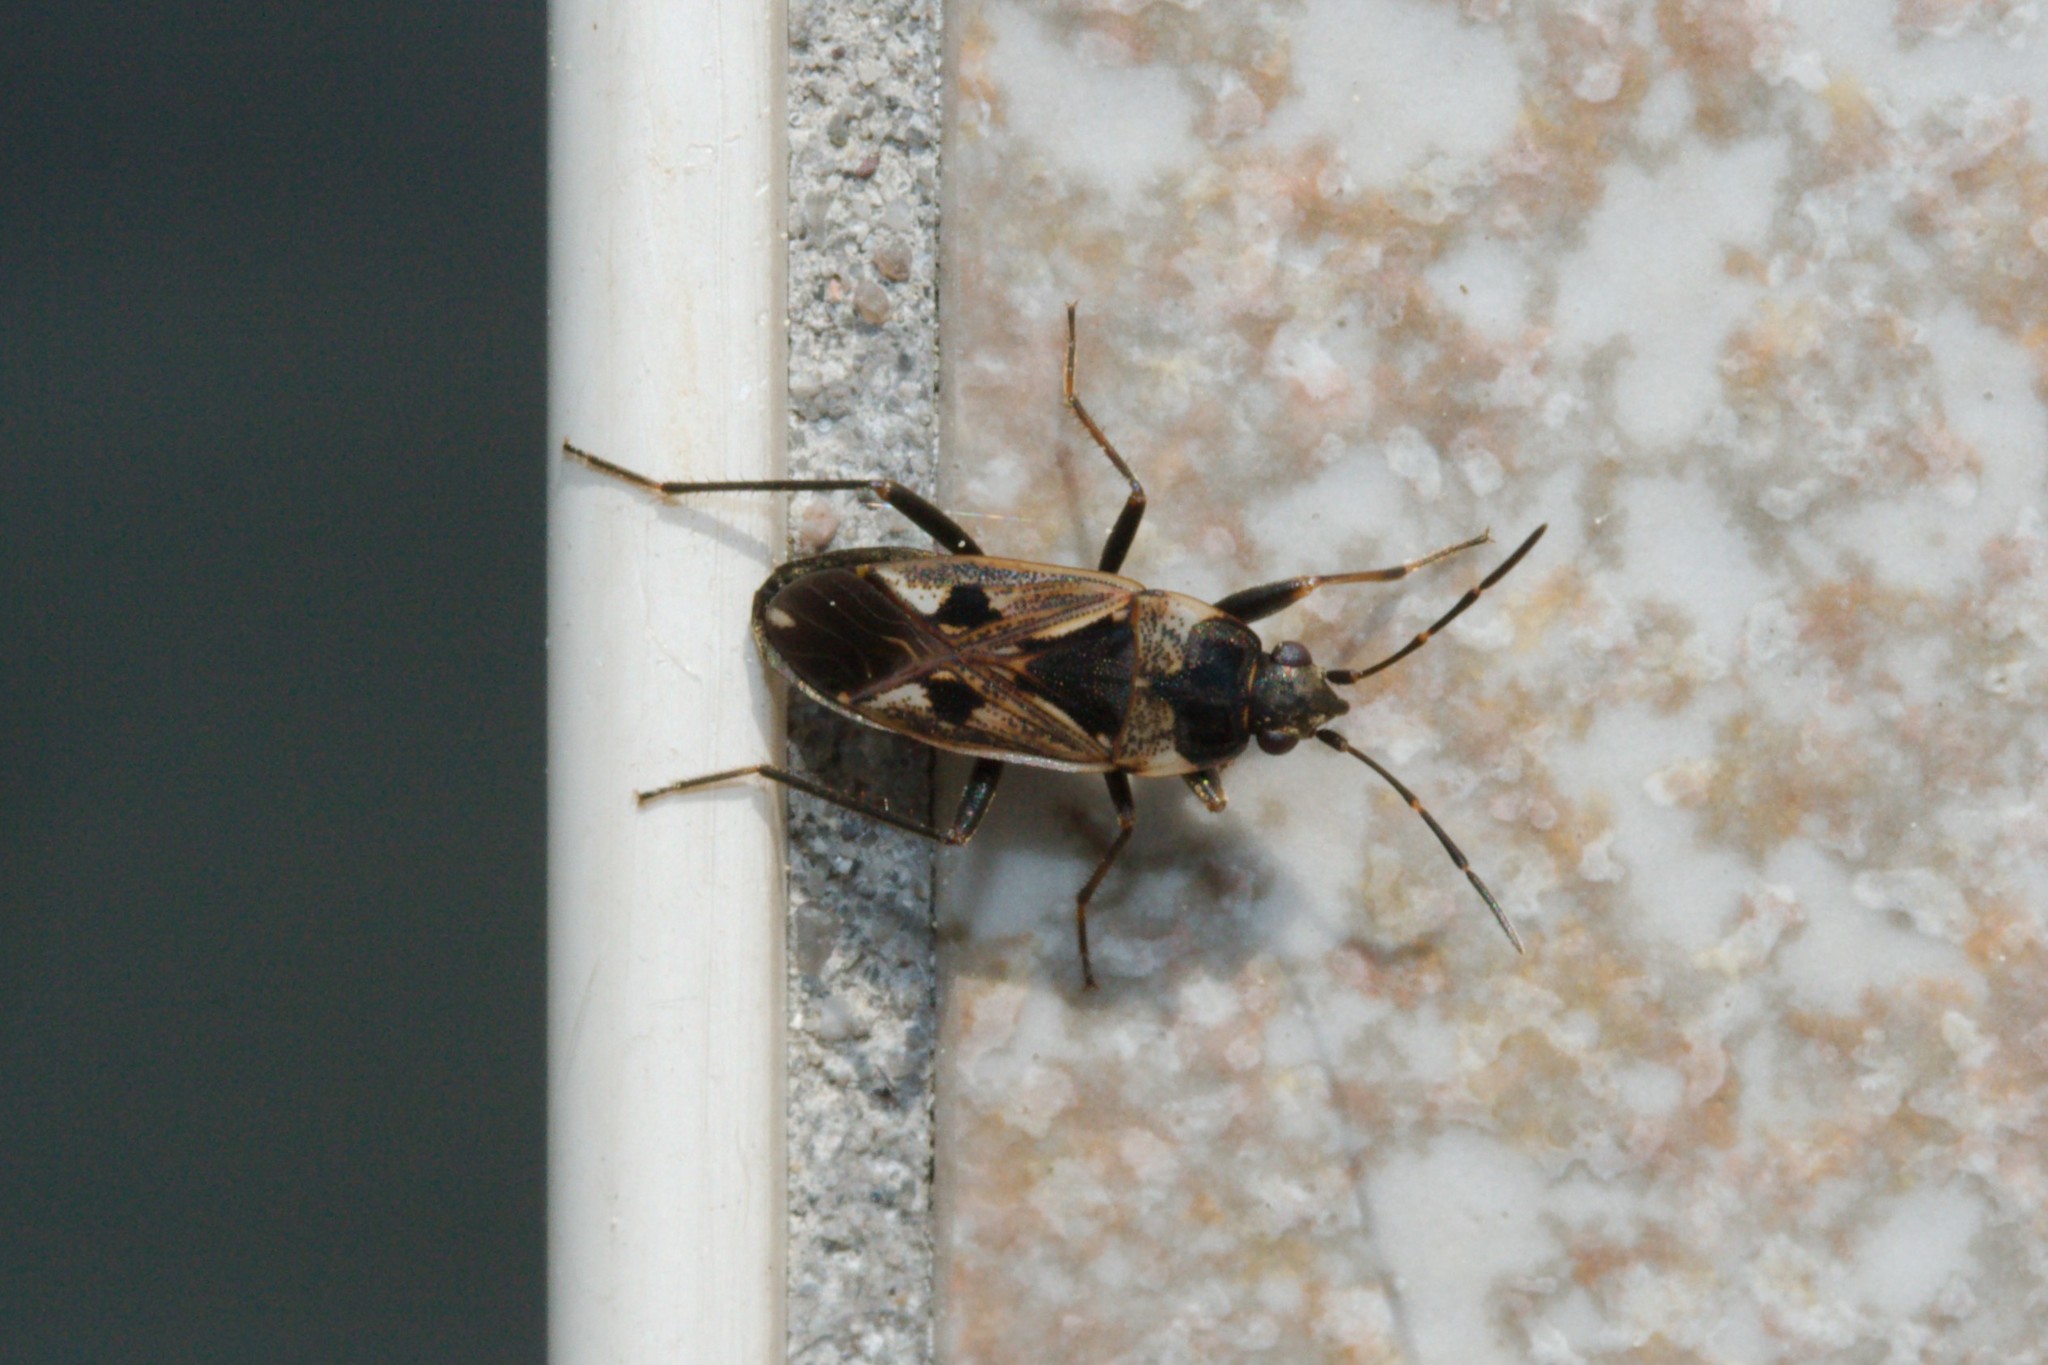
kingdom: Animalia
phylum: Arthropoda
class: Insecta
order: Hemiptera
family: Rhyparochromidae
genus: Rhyparochromus
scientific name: Rhyparochromus vulgaris
